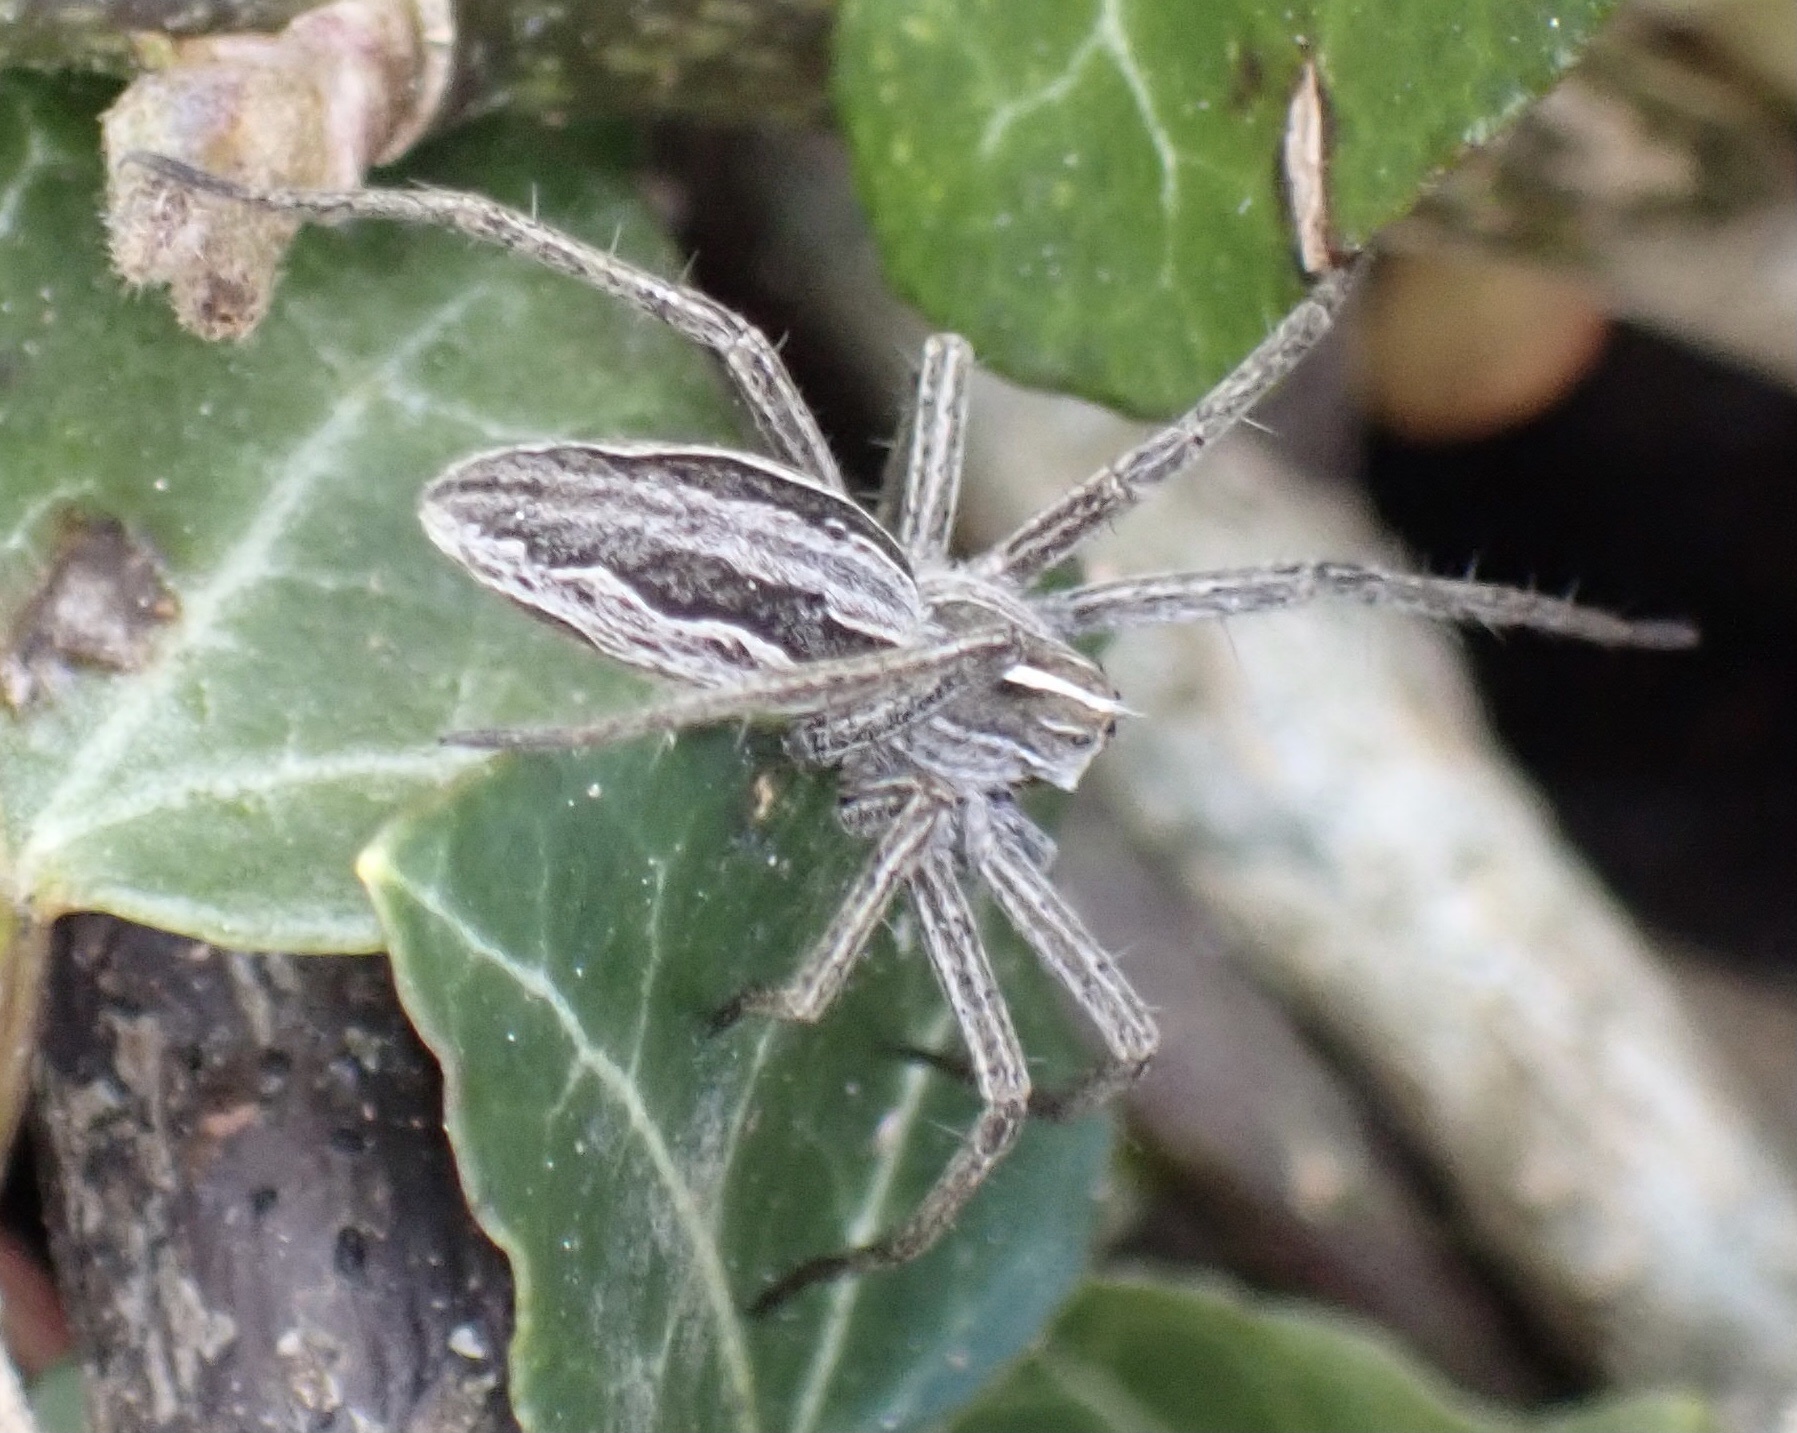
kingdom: Animalia
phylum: Arthropoda
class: Arachnida
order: Araneae
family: Pisauridae
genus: Pisaura
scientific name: Pisaura mirabilis
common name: Tent spider
